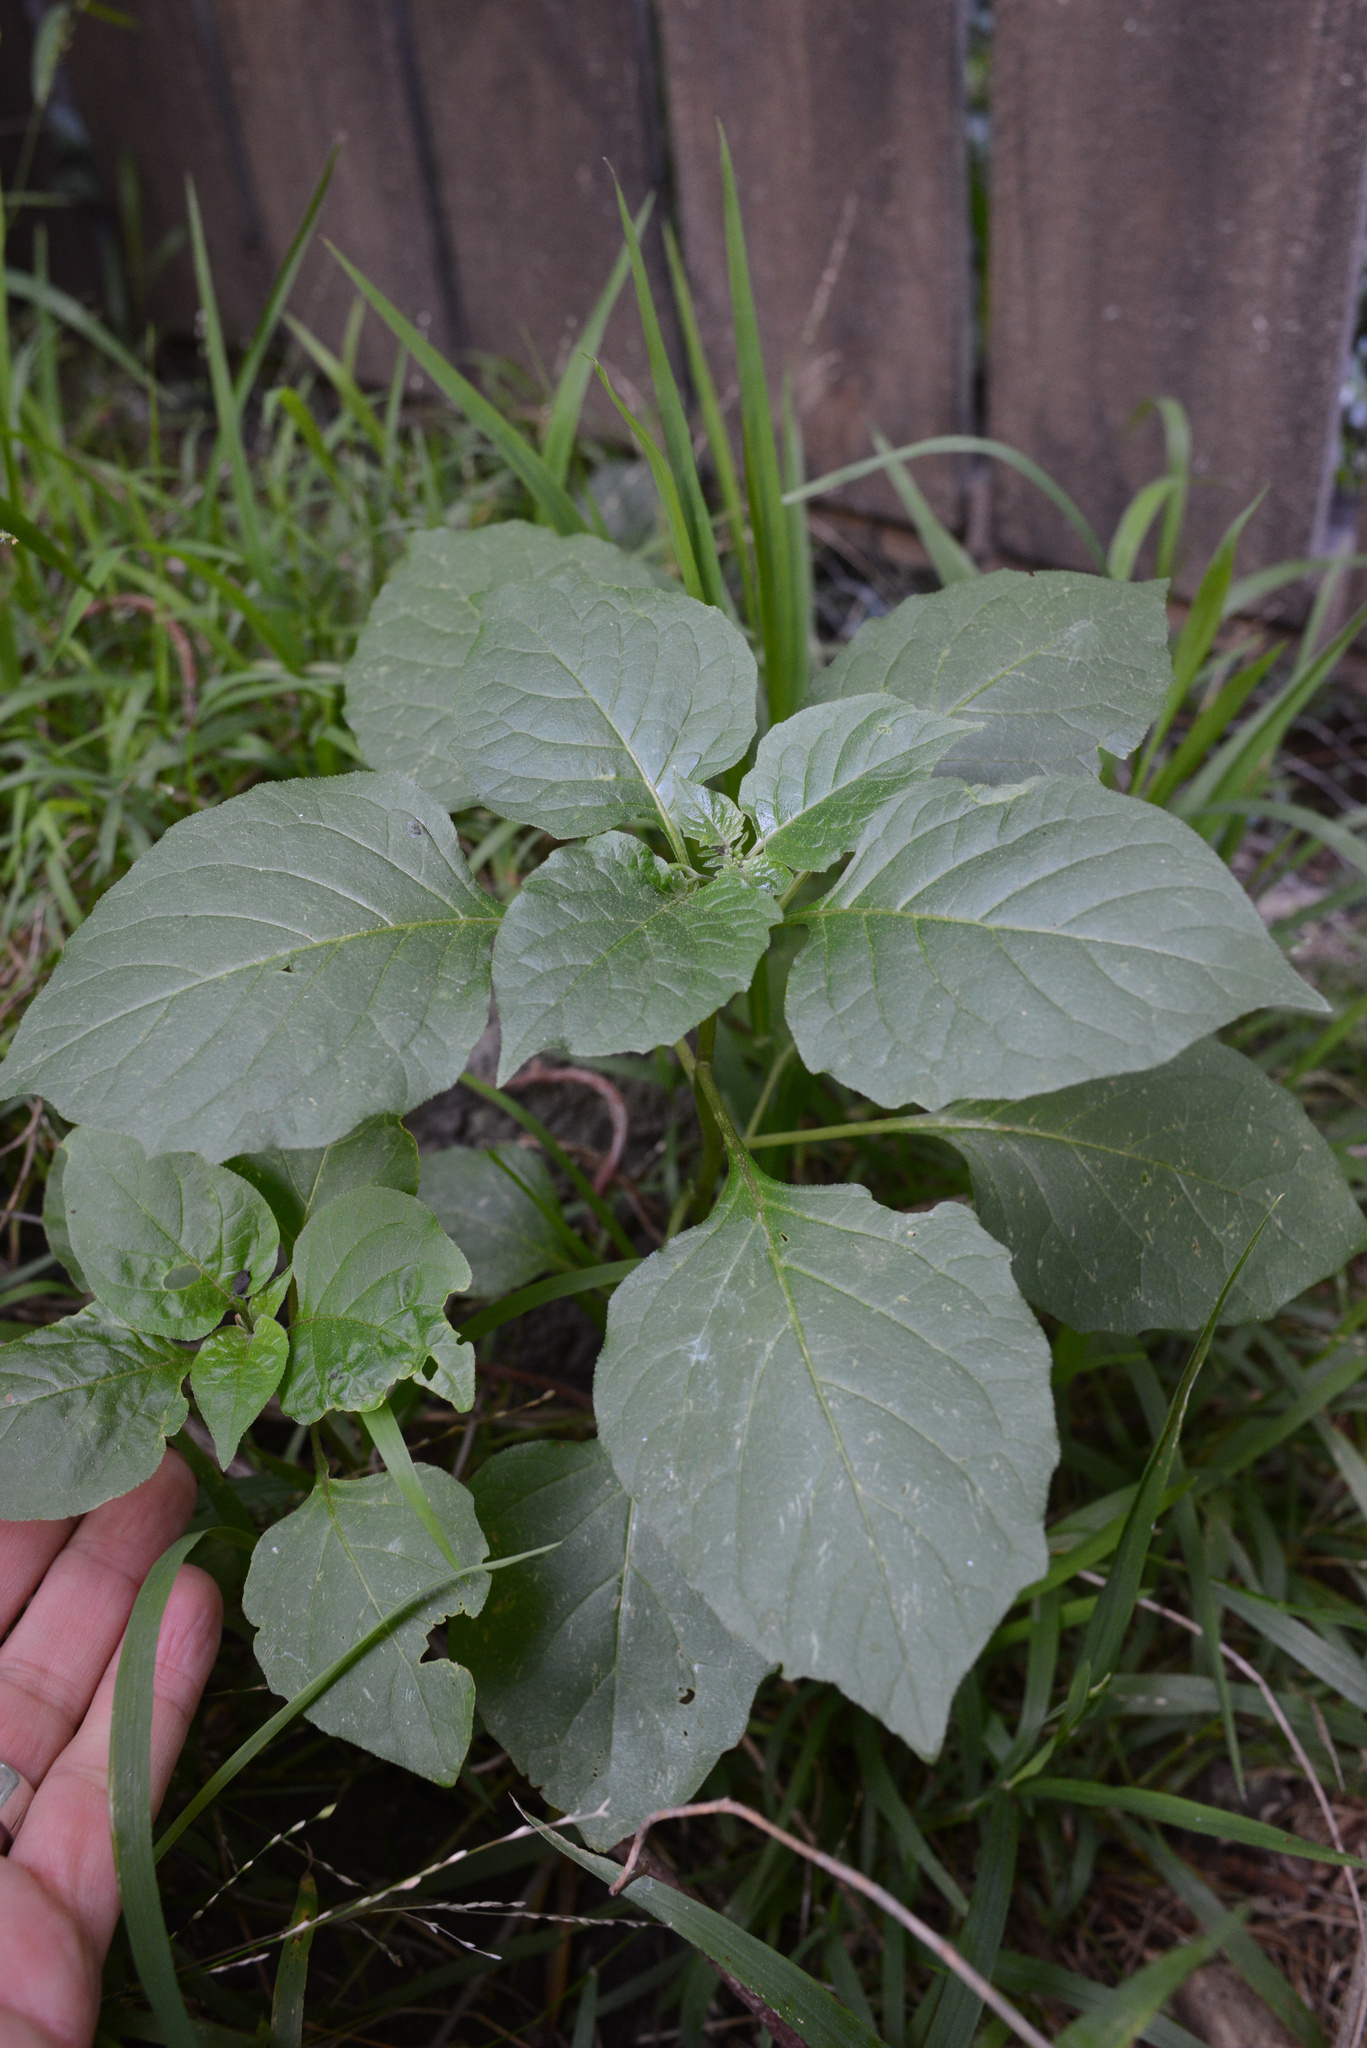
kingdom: Plantae
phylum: Tracheophyta
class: Magnoliopsida
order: Solanales
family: Solanaceae
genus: Solanum
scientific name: Solanum
